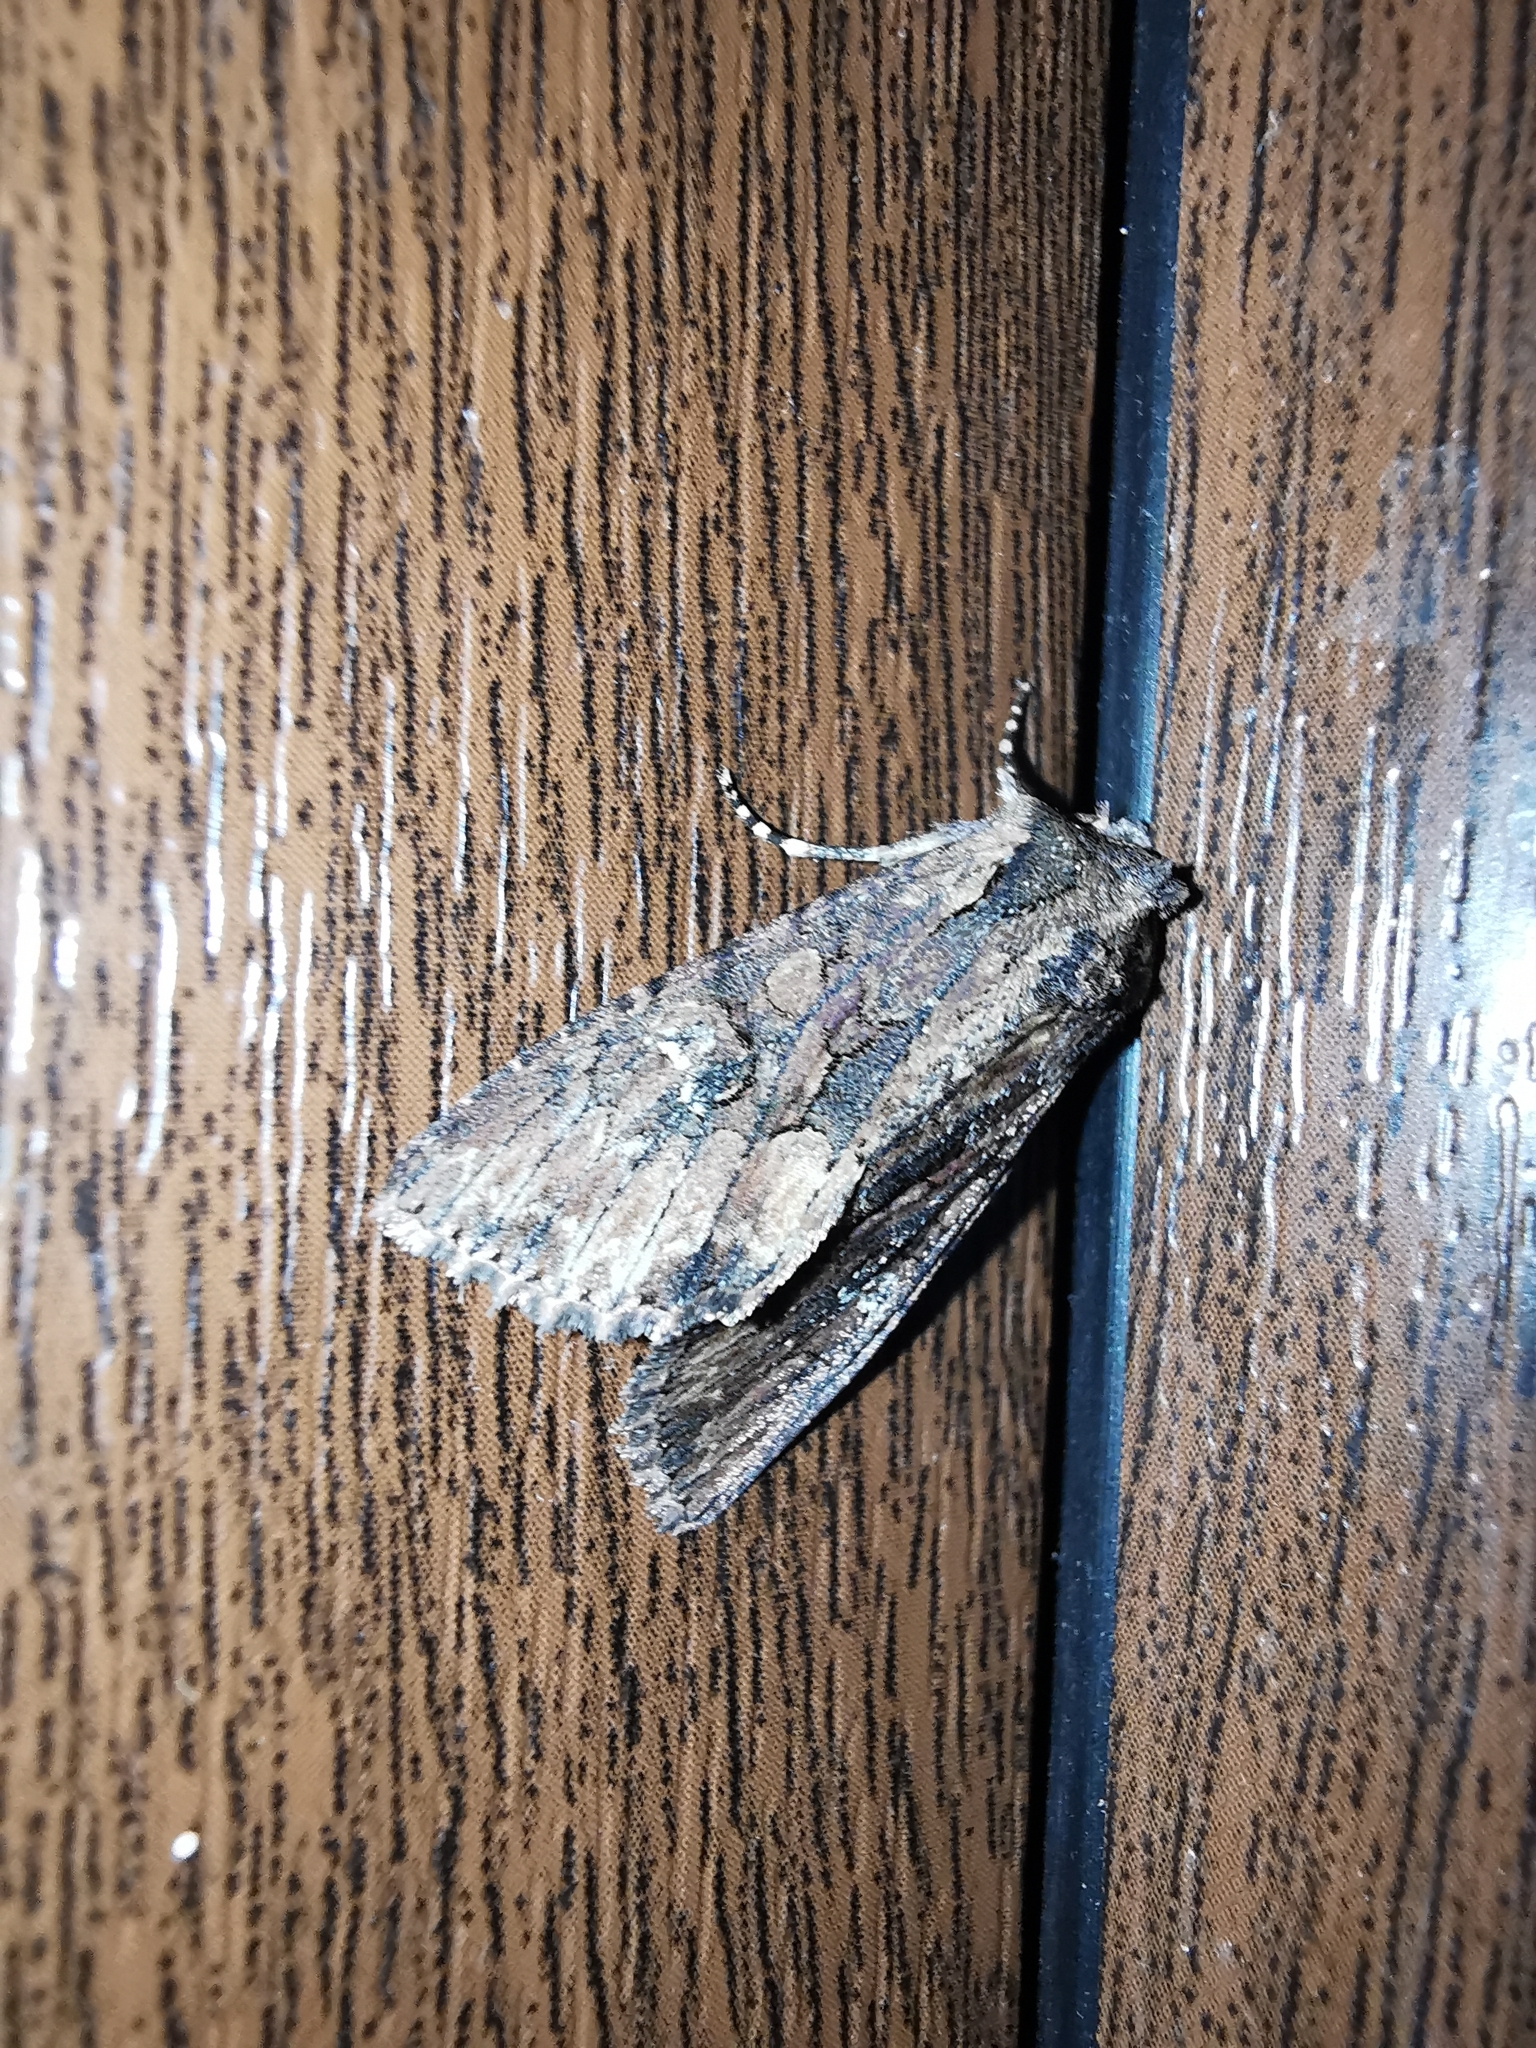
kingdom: Animalia
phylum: Arthropoda
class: Insecta
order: Lepidoptera
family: Noctuidae
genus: Mniotype
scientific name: Mniotype solieri
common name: Bedrule brocade
